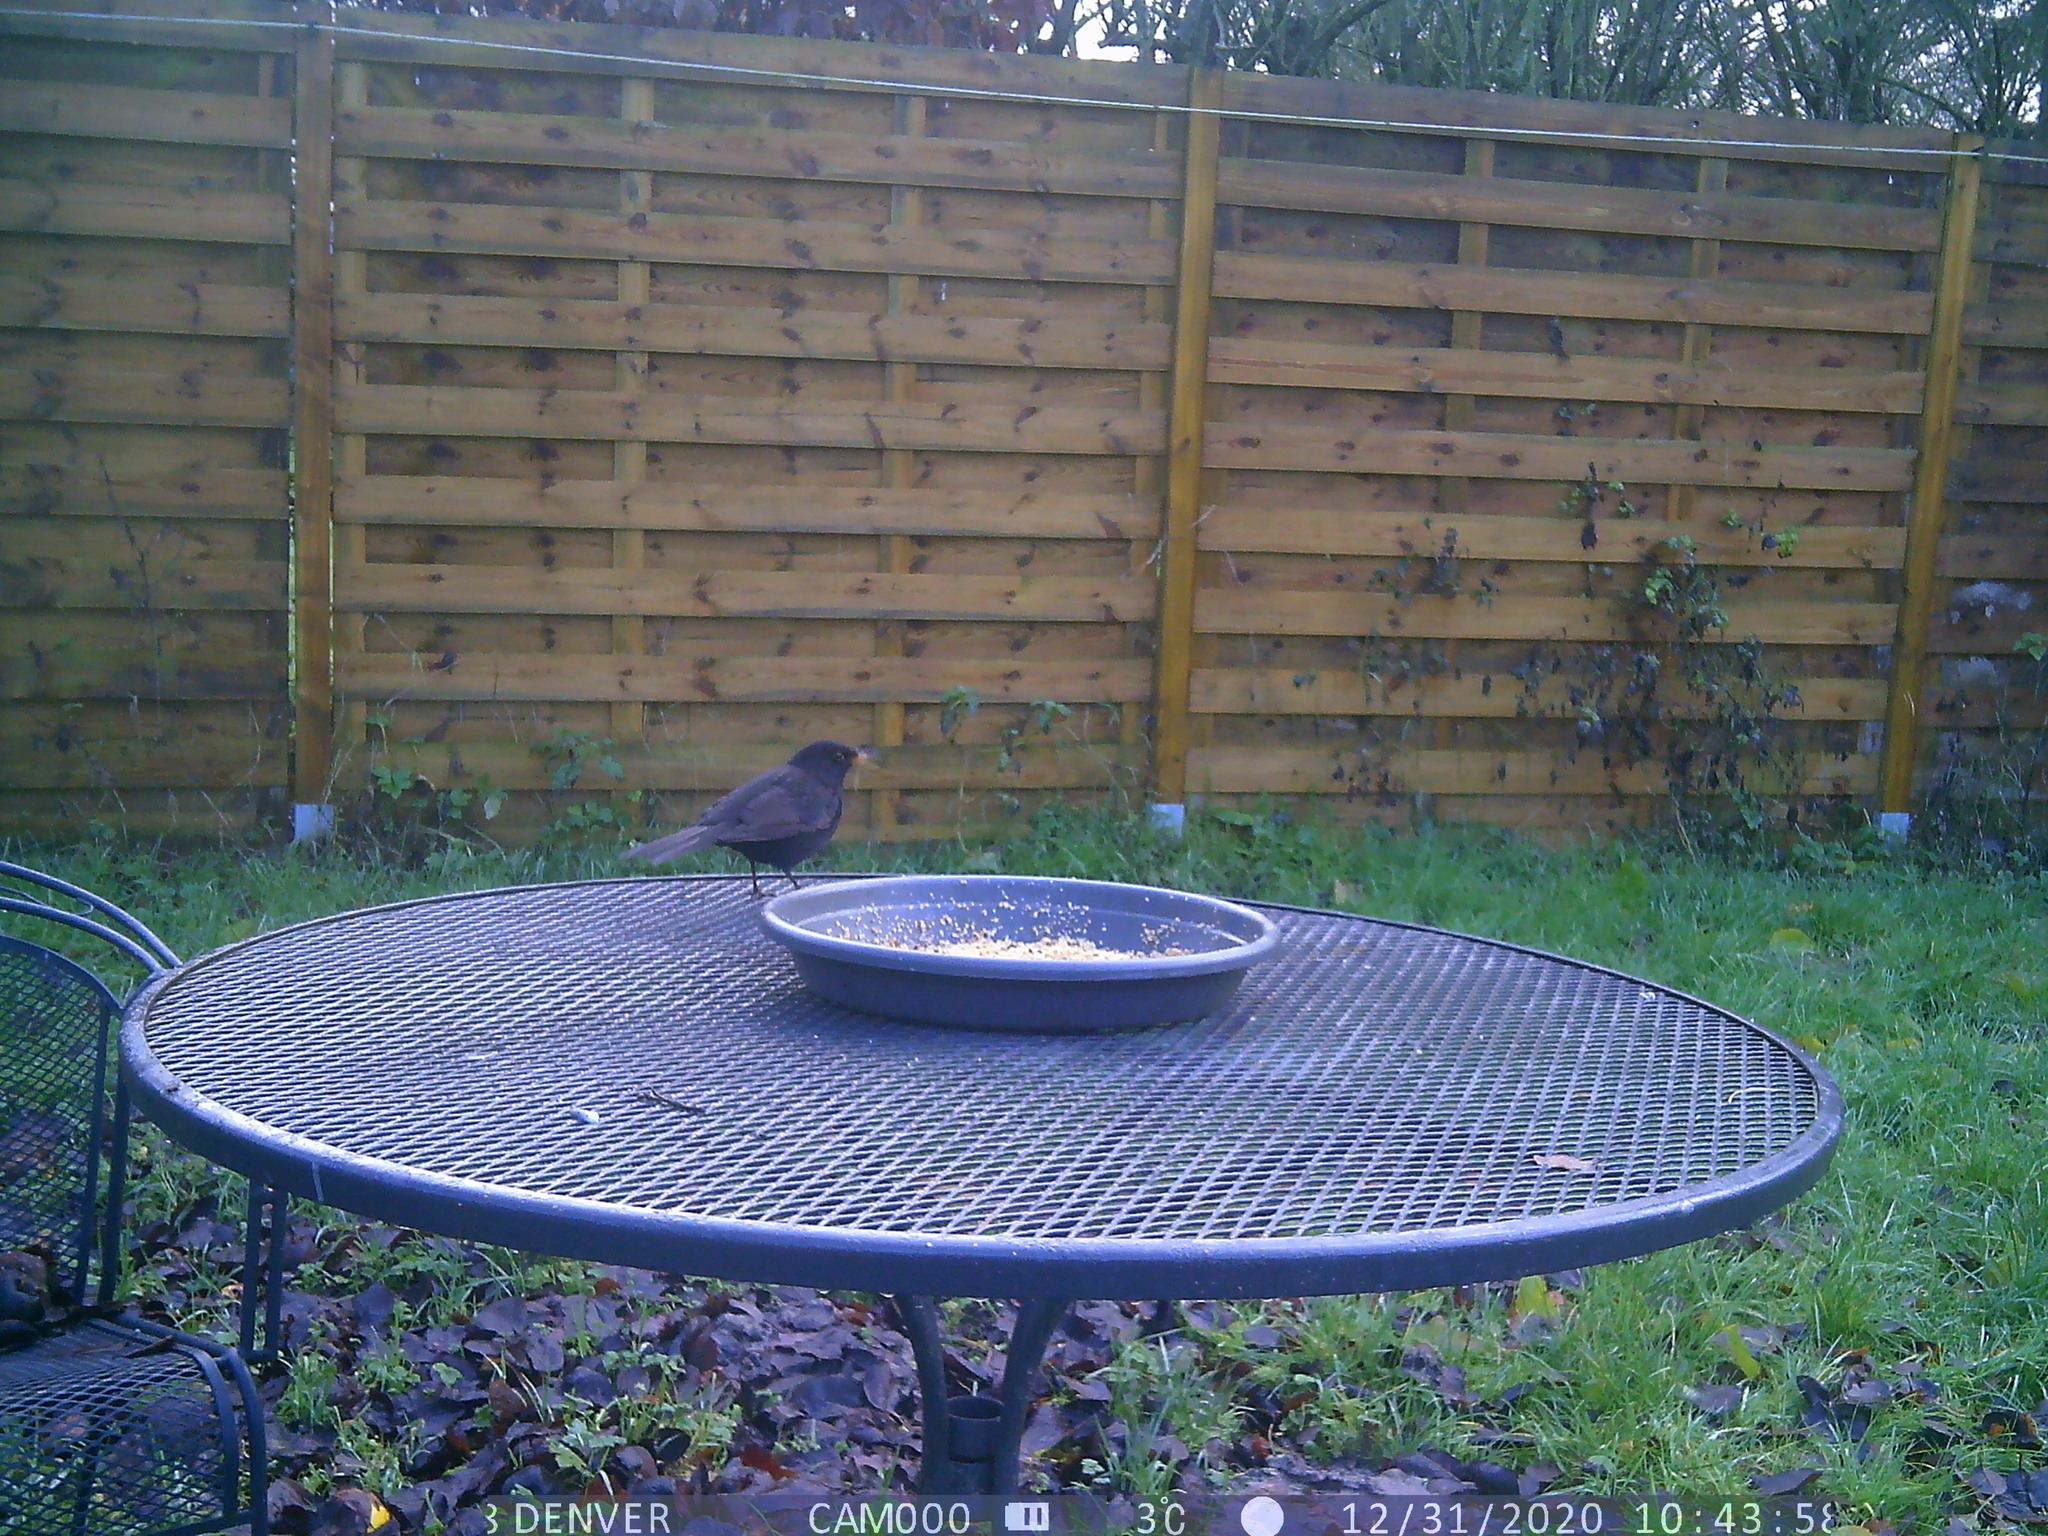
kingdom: Animalia
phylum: Chordata
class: Aves
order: Passeriformes
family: Turdidae
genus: Turdus
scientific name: Turdus merula
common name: Common blackbird
